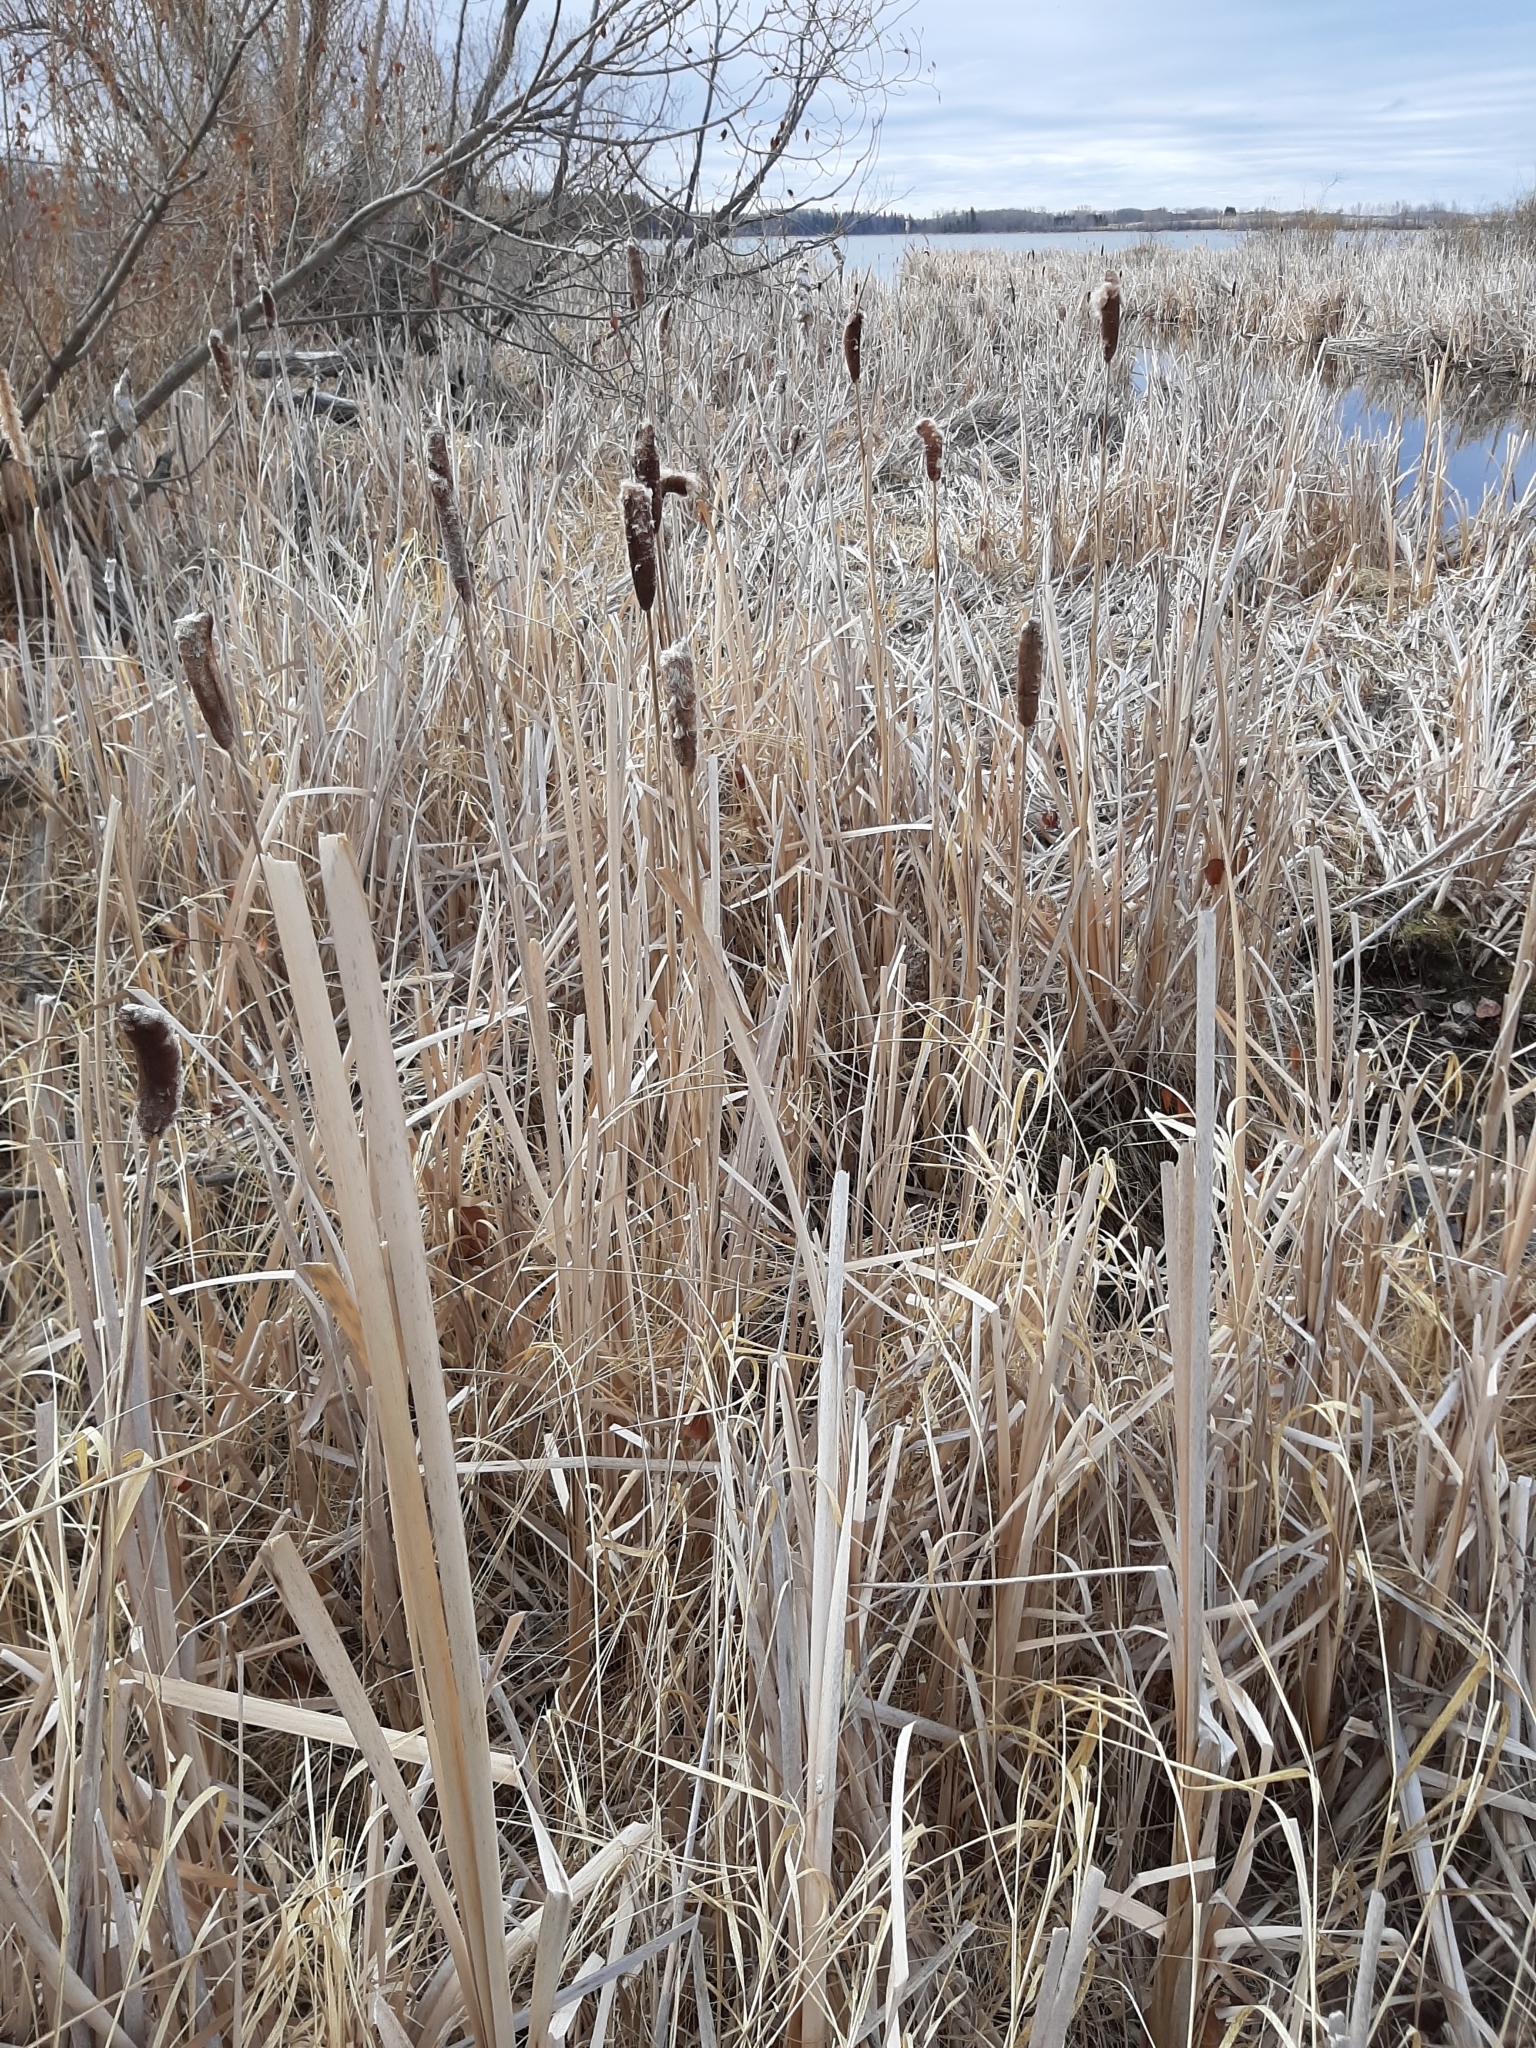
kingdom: Plantae
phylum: Tracheophyta
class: Liliopsida
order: Poales
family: Typhaceae
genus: Typha
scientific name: Typha latifolia
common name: Broadleaf cattail
